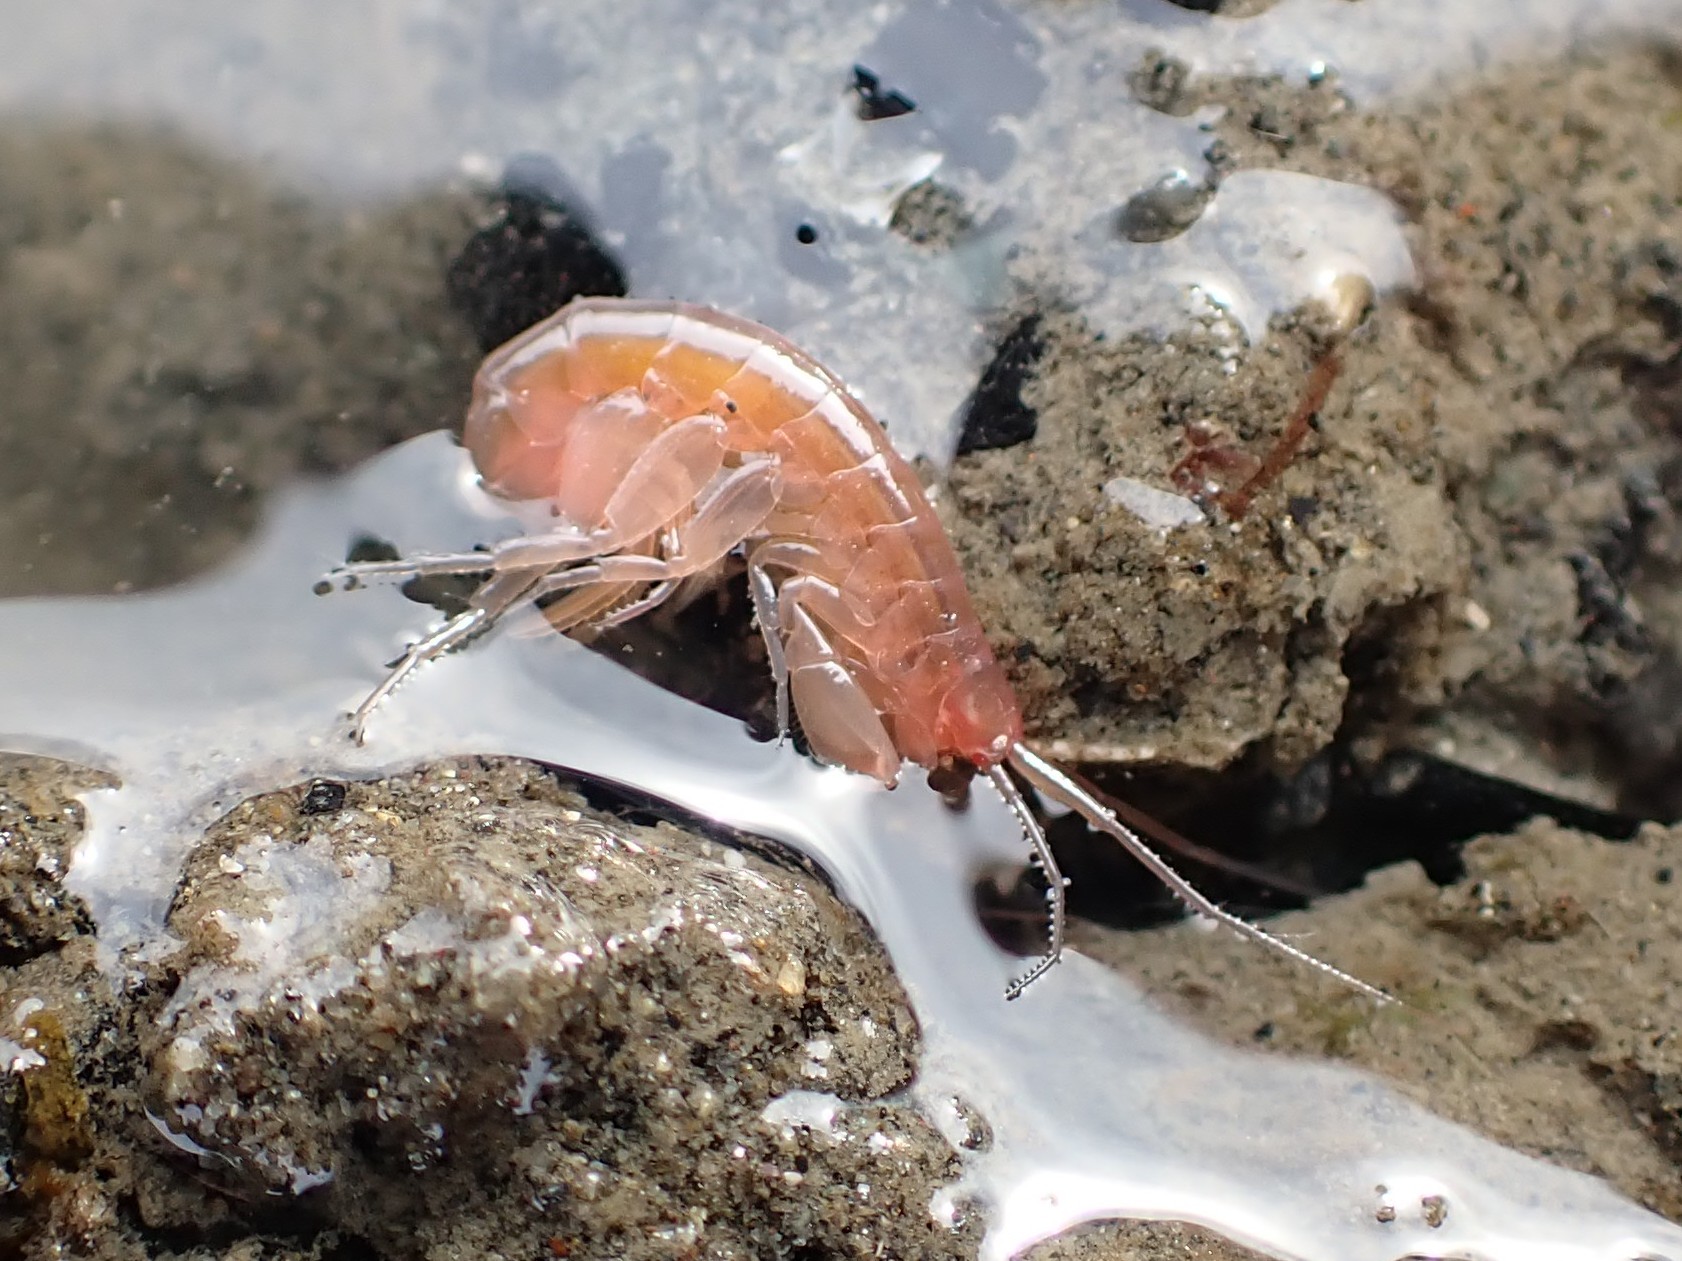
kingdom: Animalia
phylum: Arthropoda
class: Malacostraca
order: Amphipoda
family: Maeridae
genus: Maera
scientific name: Maera danae
